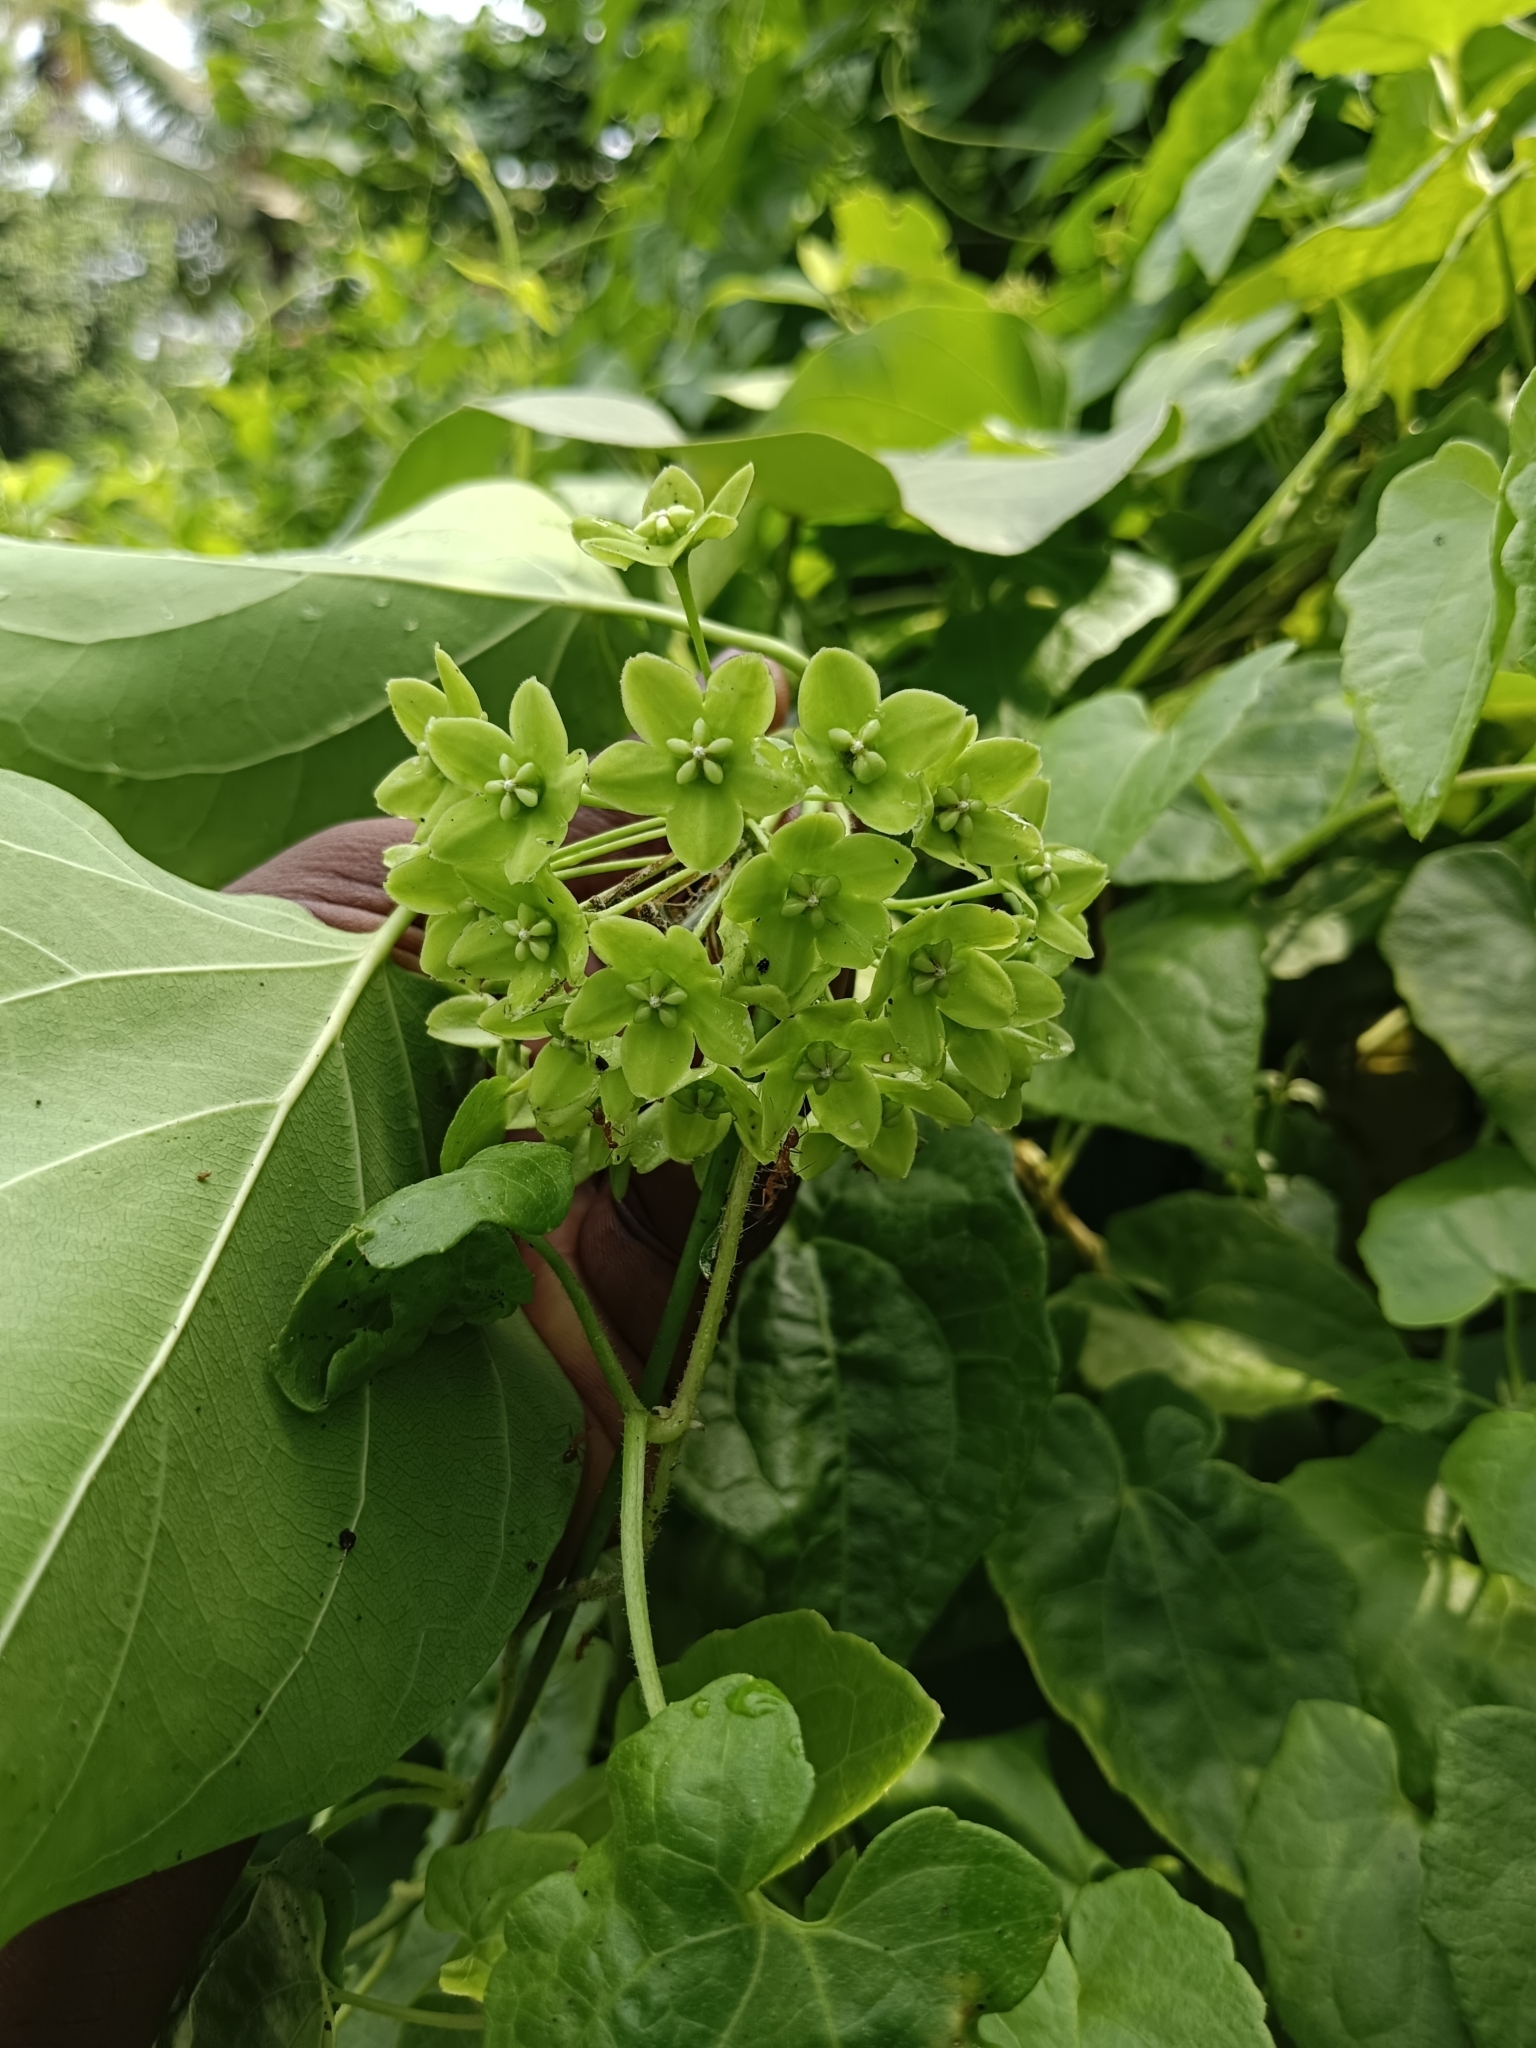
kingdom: Plantae
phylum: Tracheophyta
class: Magnoliopsida
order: Gentianales
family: Apocynaceae
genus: Stephanotis
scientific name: Stephanotis volubilis
